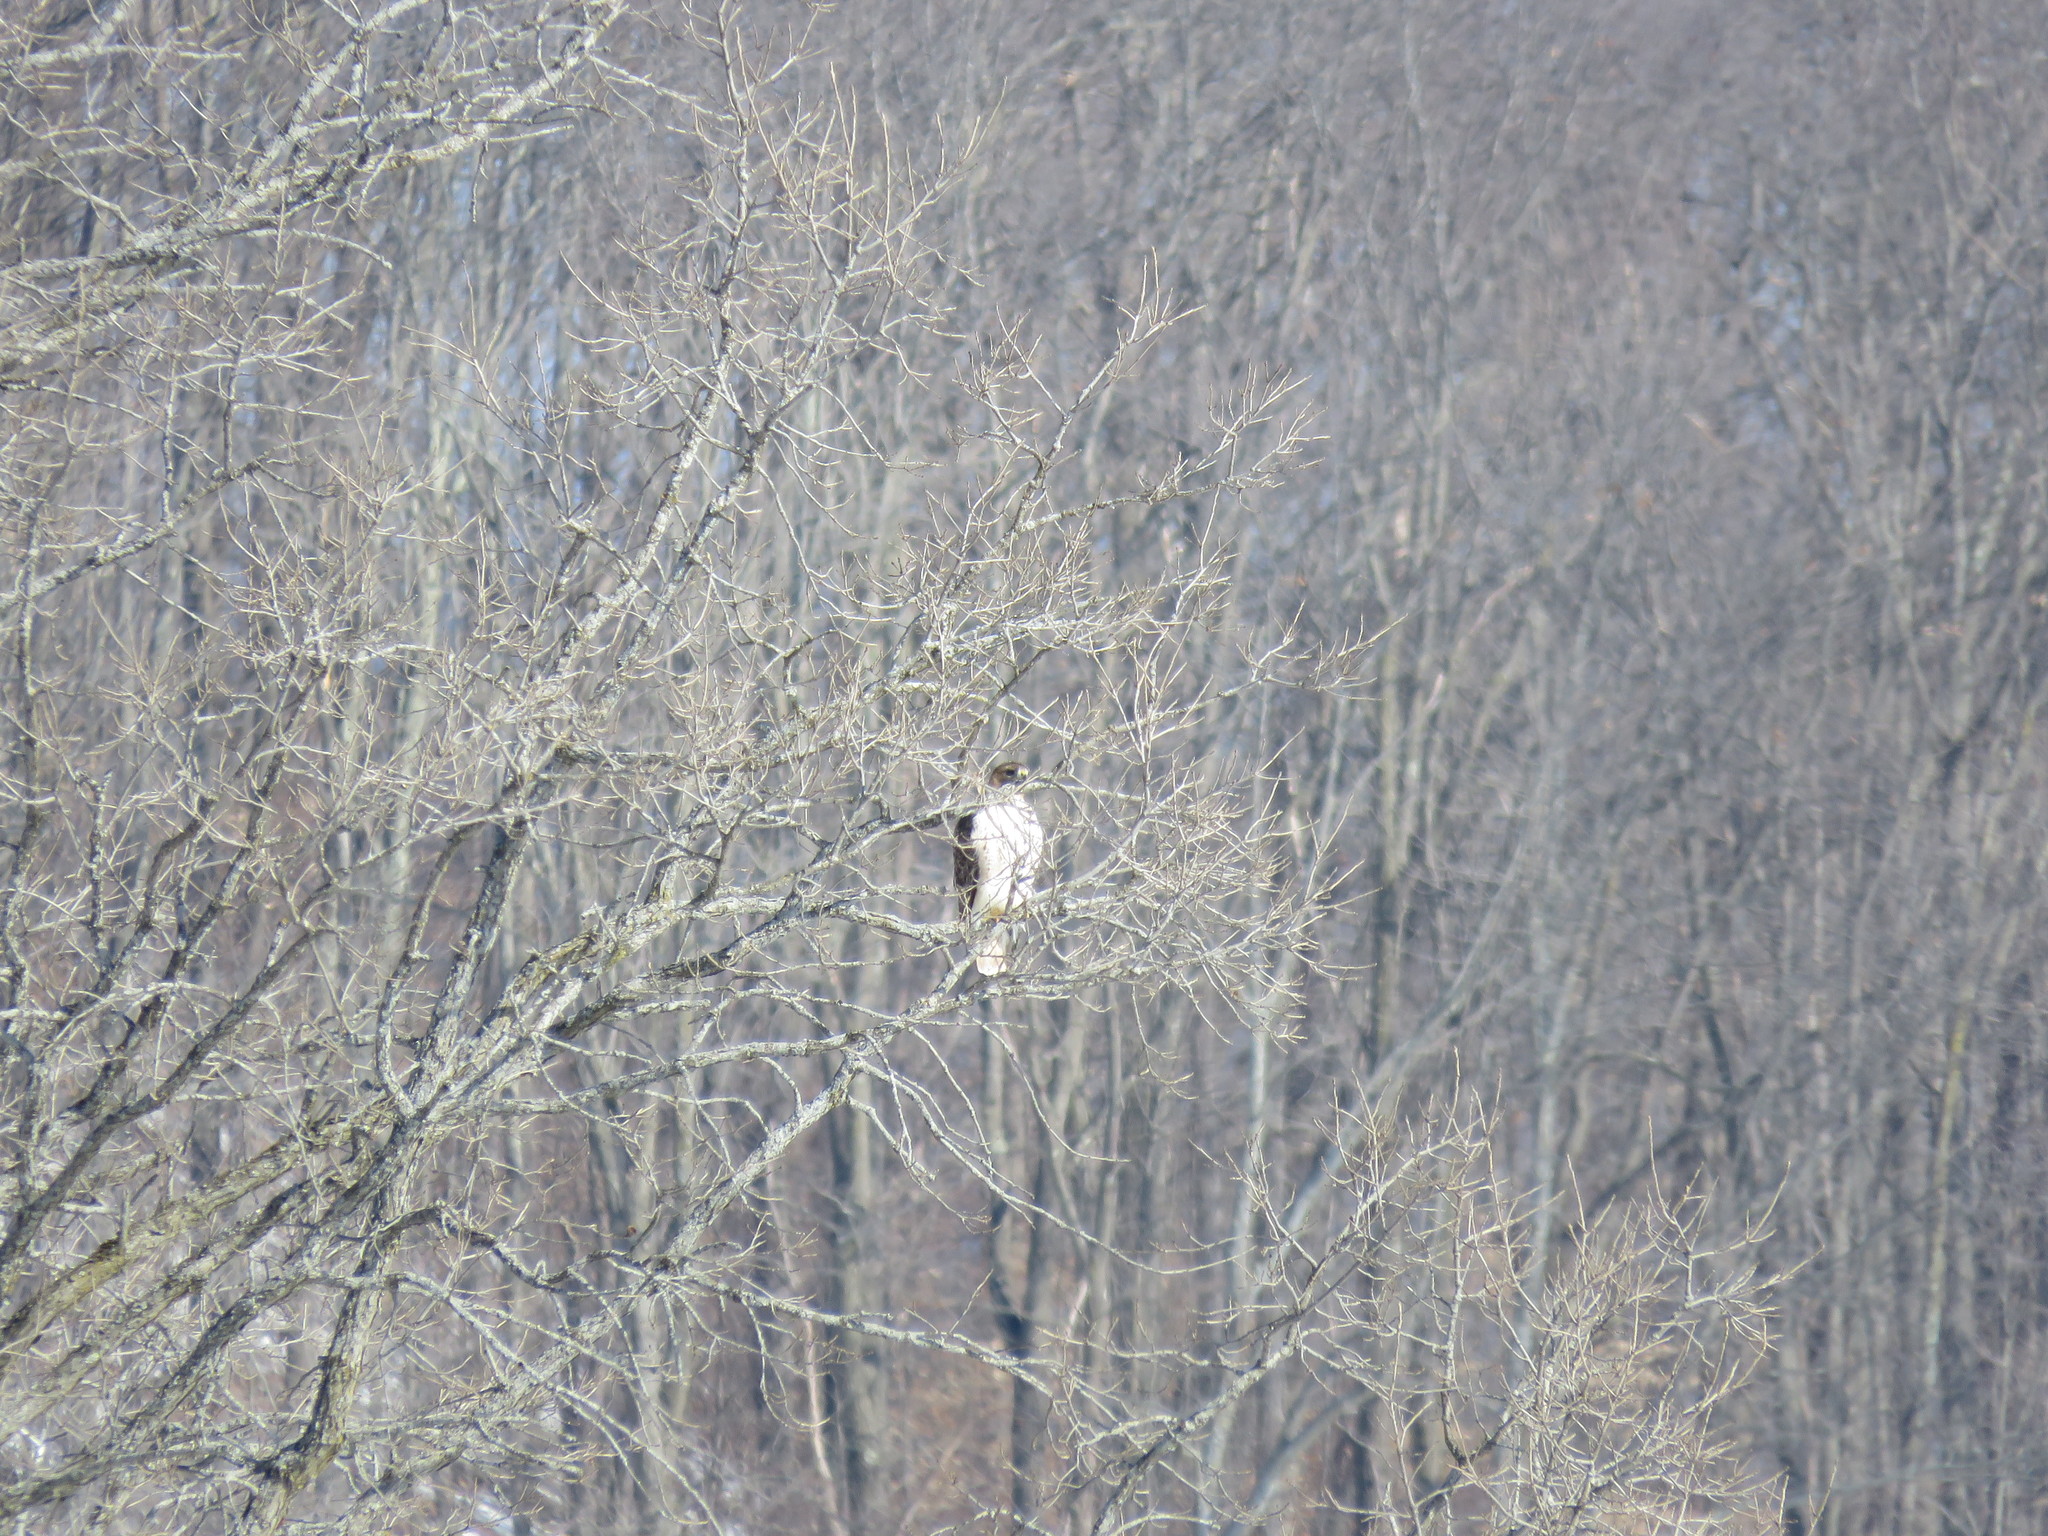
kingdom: Animalia
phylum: Chordata
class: Aves
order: Accipitriformes
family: Accipitridae
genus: Buteo
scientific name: Buteo jamaicensis
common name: Red-tailed hawk
